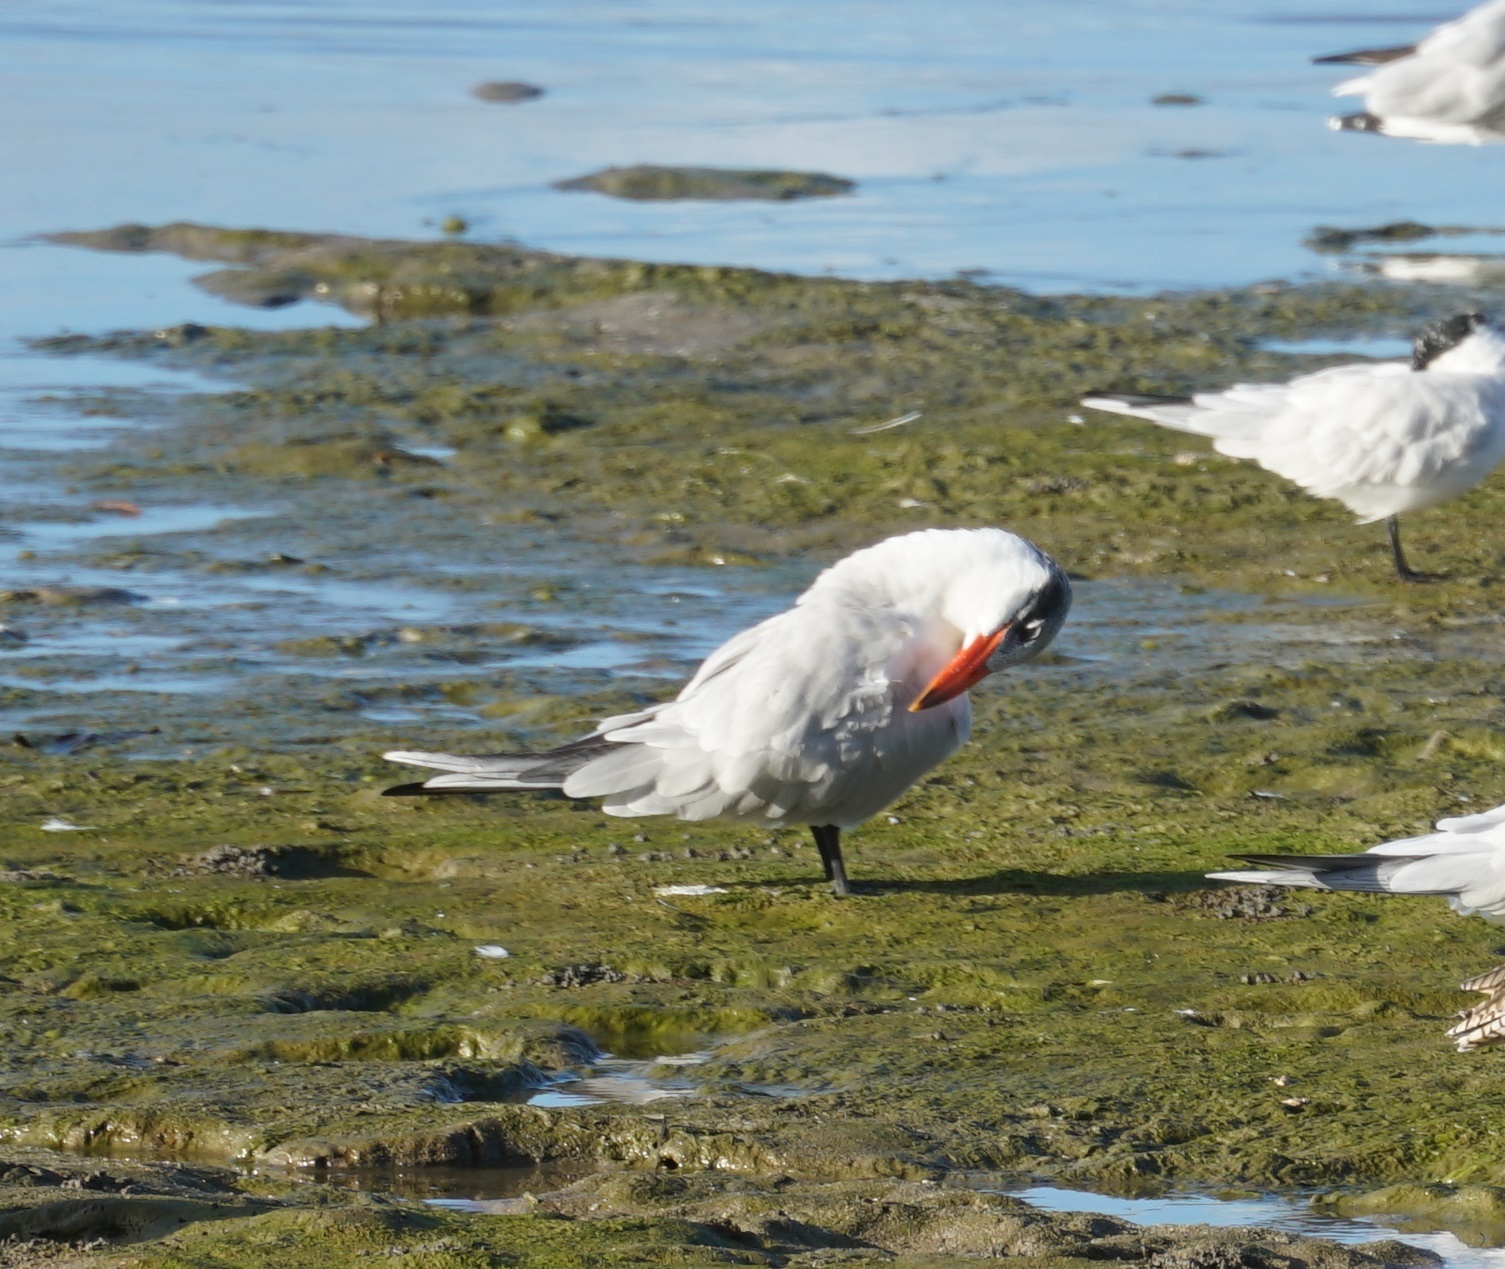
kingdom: Animalia
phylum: Chordata
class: Aves
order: Charadriiformes
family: Laridae
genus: Hydroprogne
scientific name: Hydroprogne caspia
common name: Caspian tern
